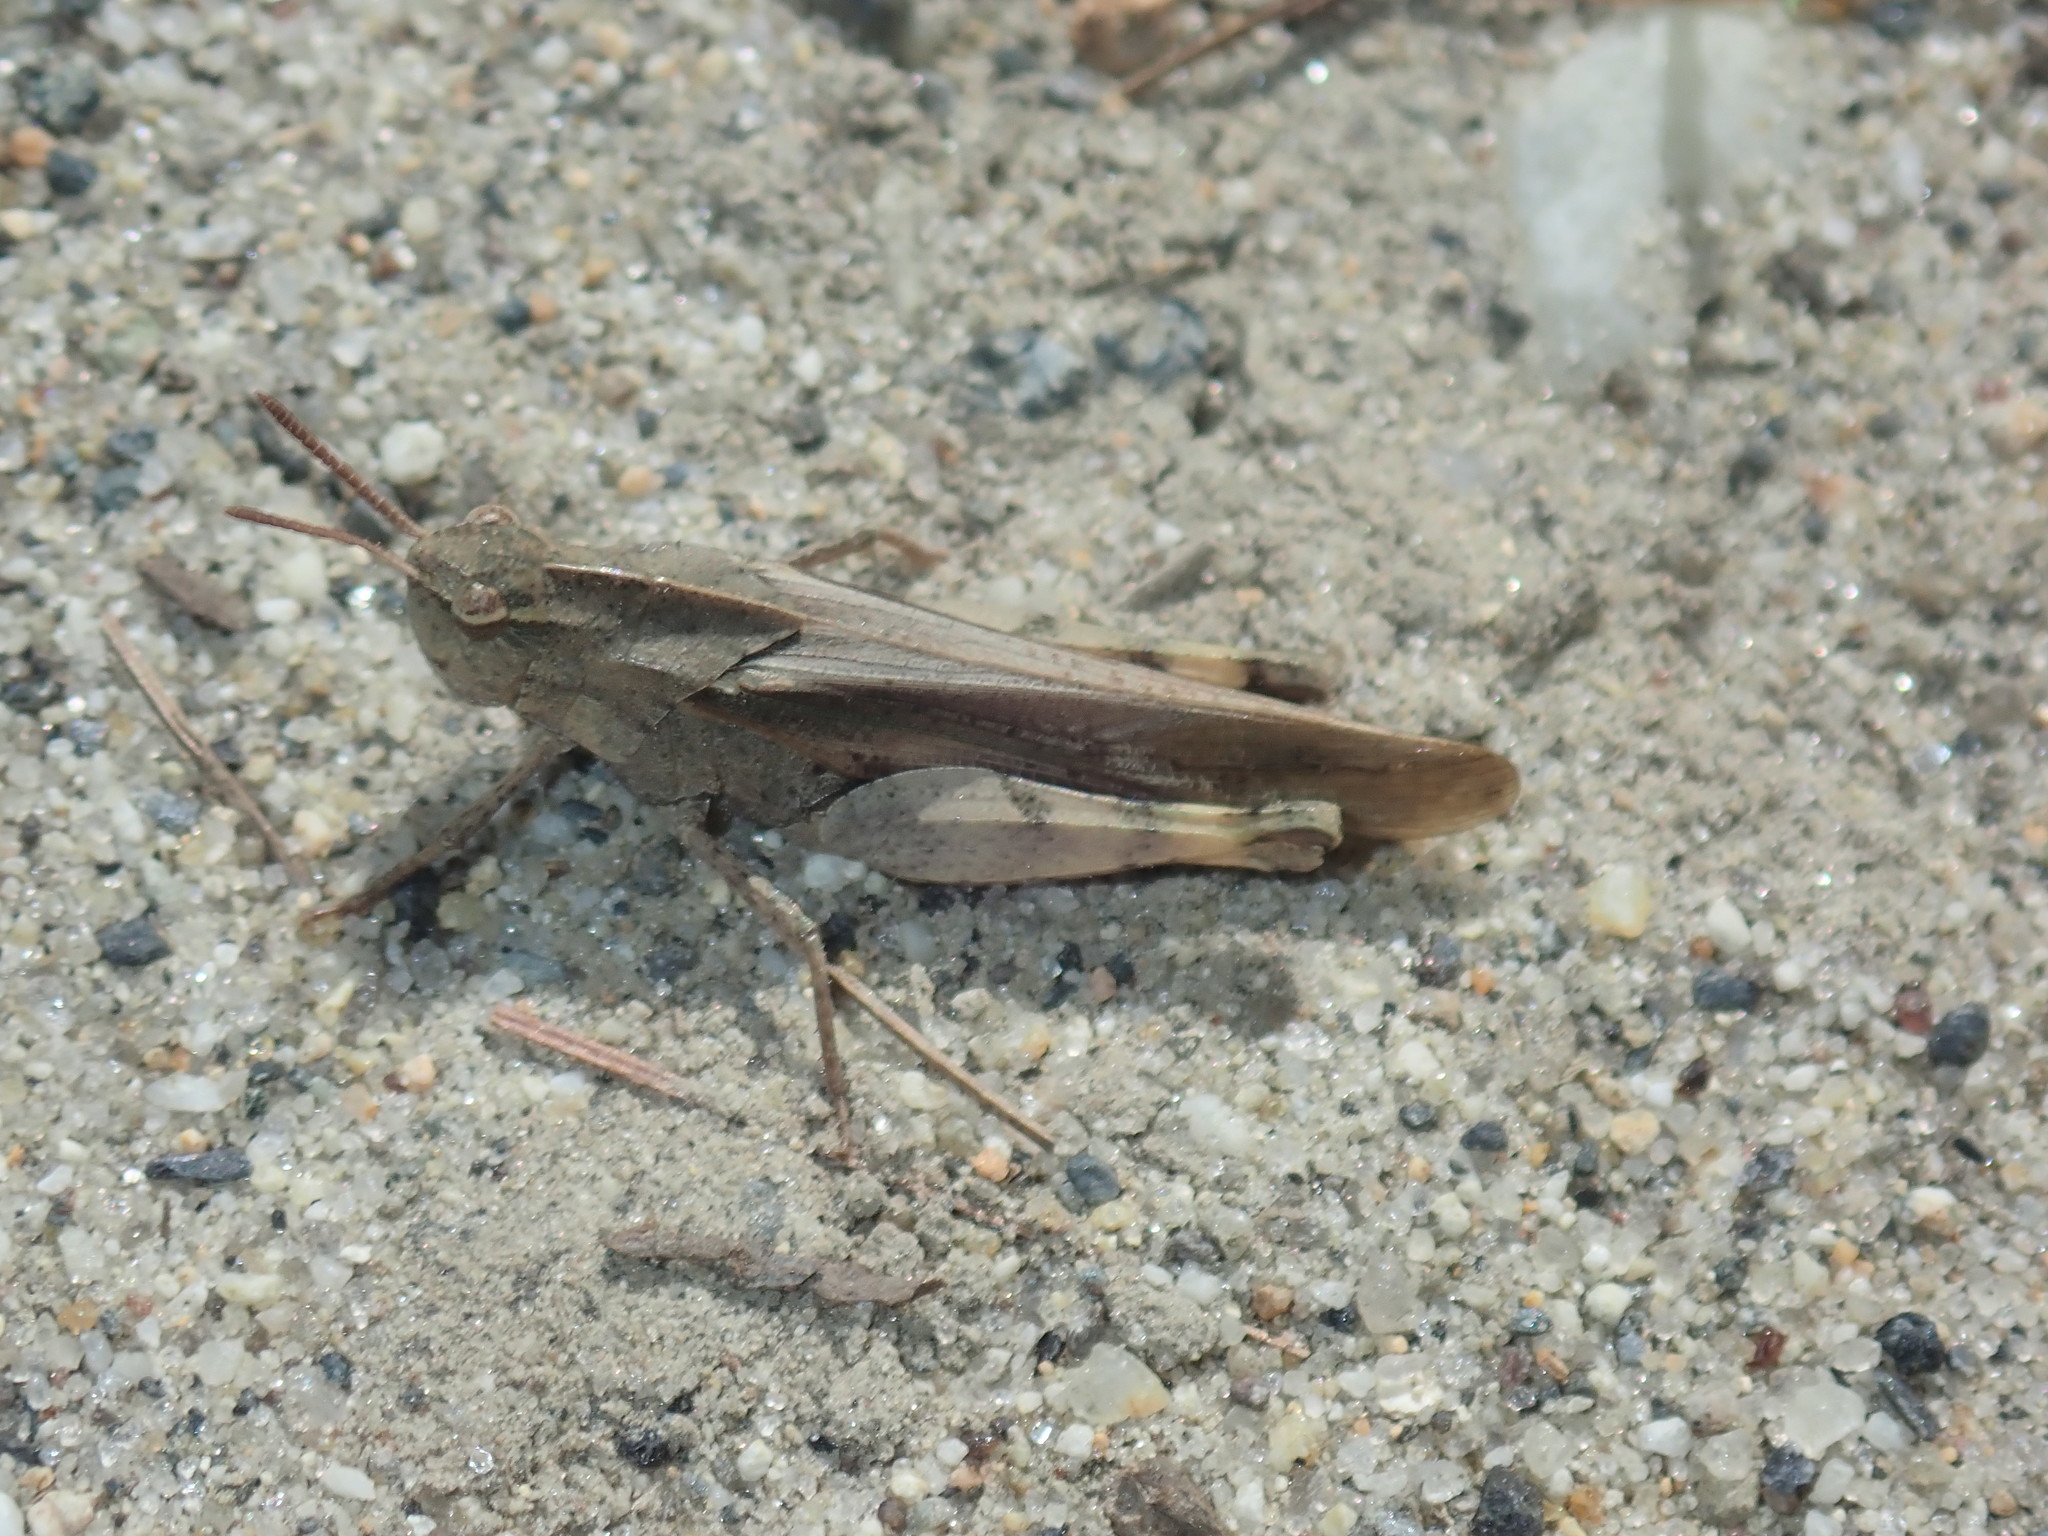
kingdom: Animalia
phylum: Arthropoda
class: Insecta
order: Orthoptera
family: Acrididae
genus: Chortophaga
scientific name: Chortophaga viridifasciata
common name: Green-striped grasshopper
